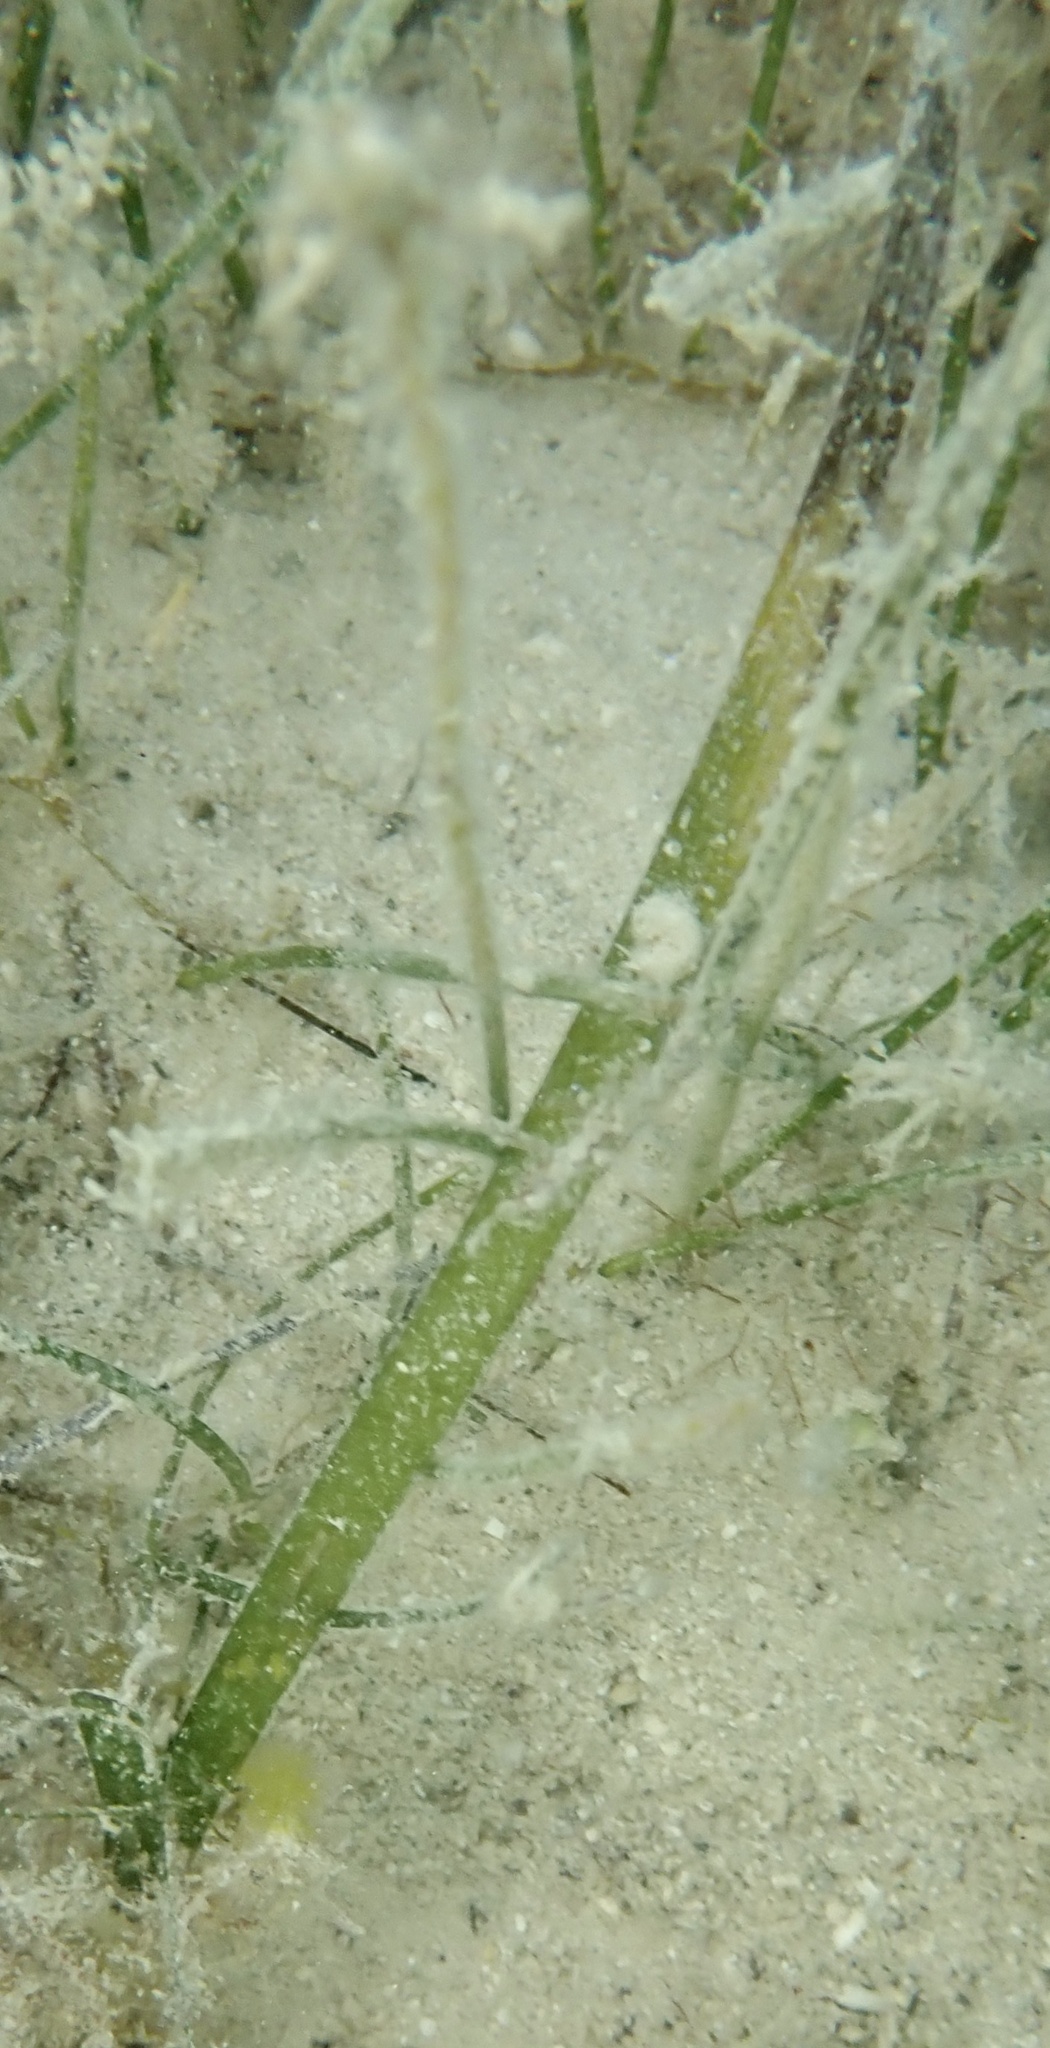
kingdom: Plantae
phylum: Tracheophyta
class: Liliopsida
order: Alismatales
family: Hydrocharitaceae
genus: Thalassia
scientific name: Thalassia testudinum
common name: Species code: tt
